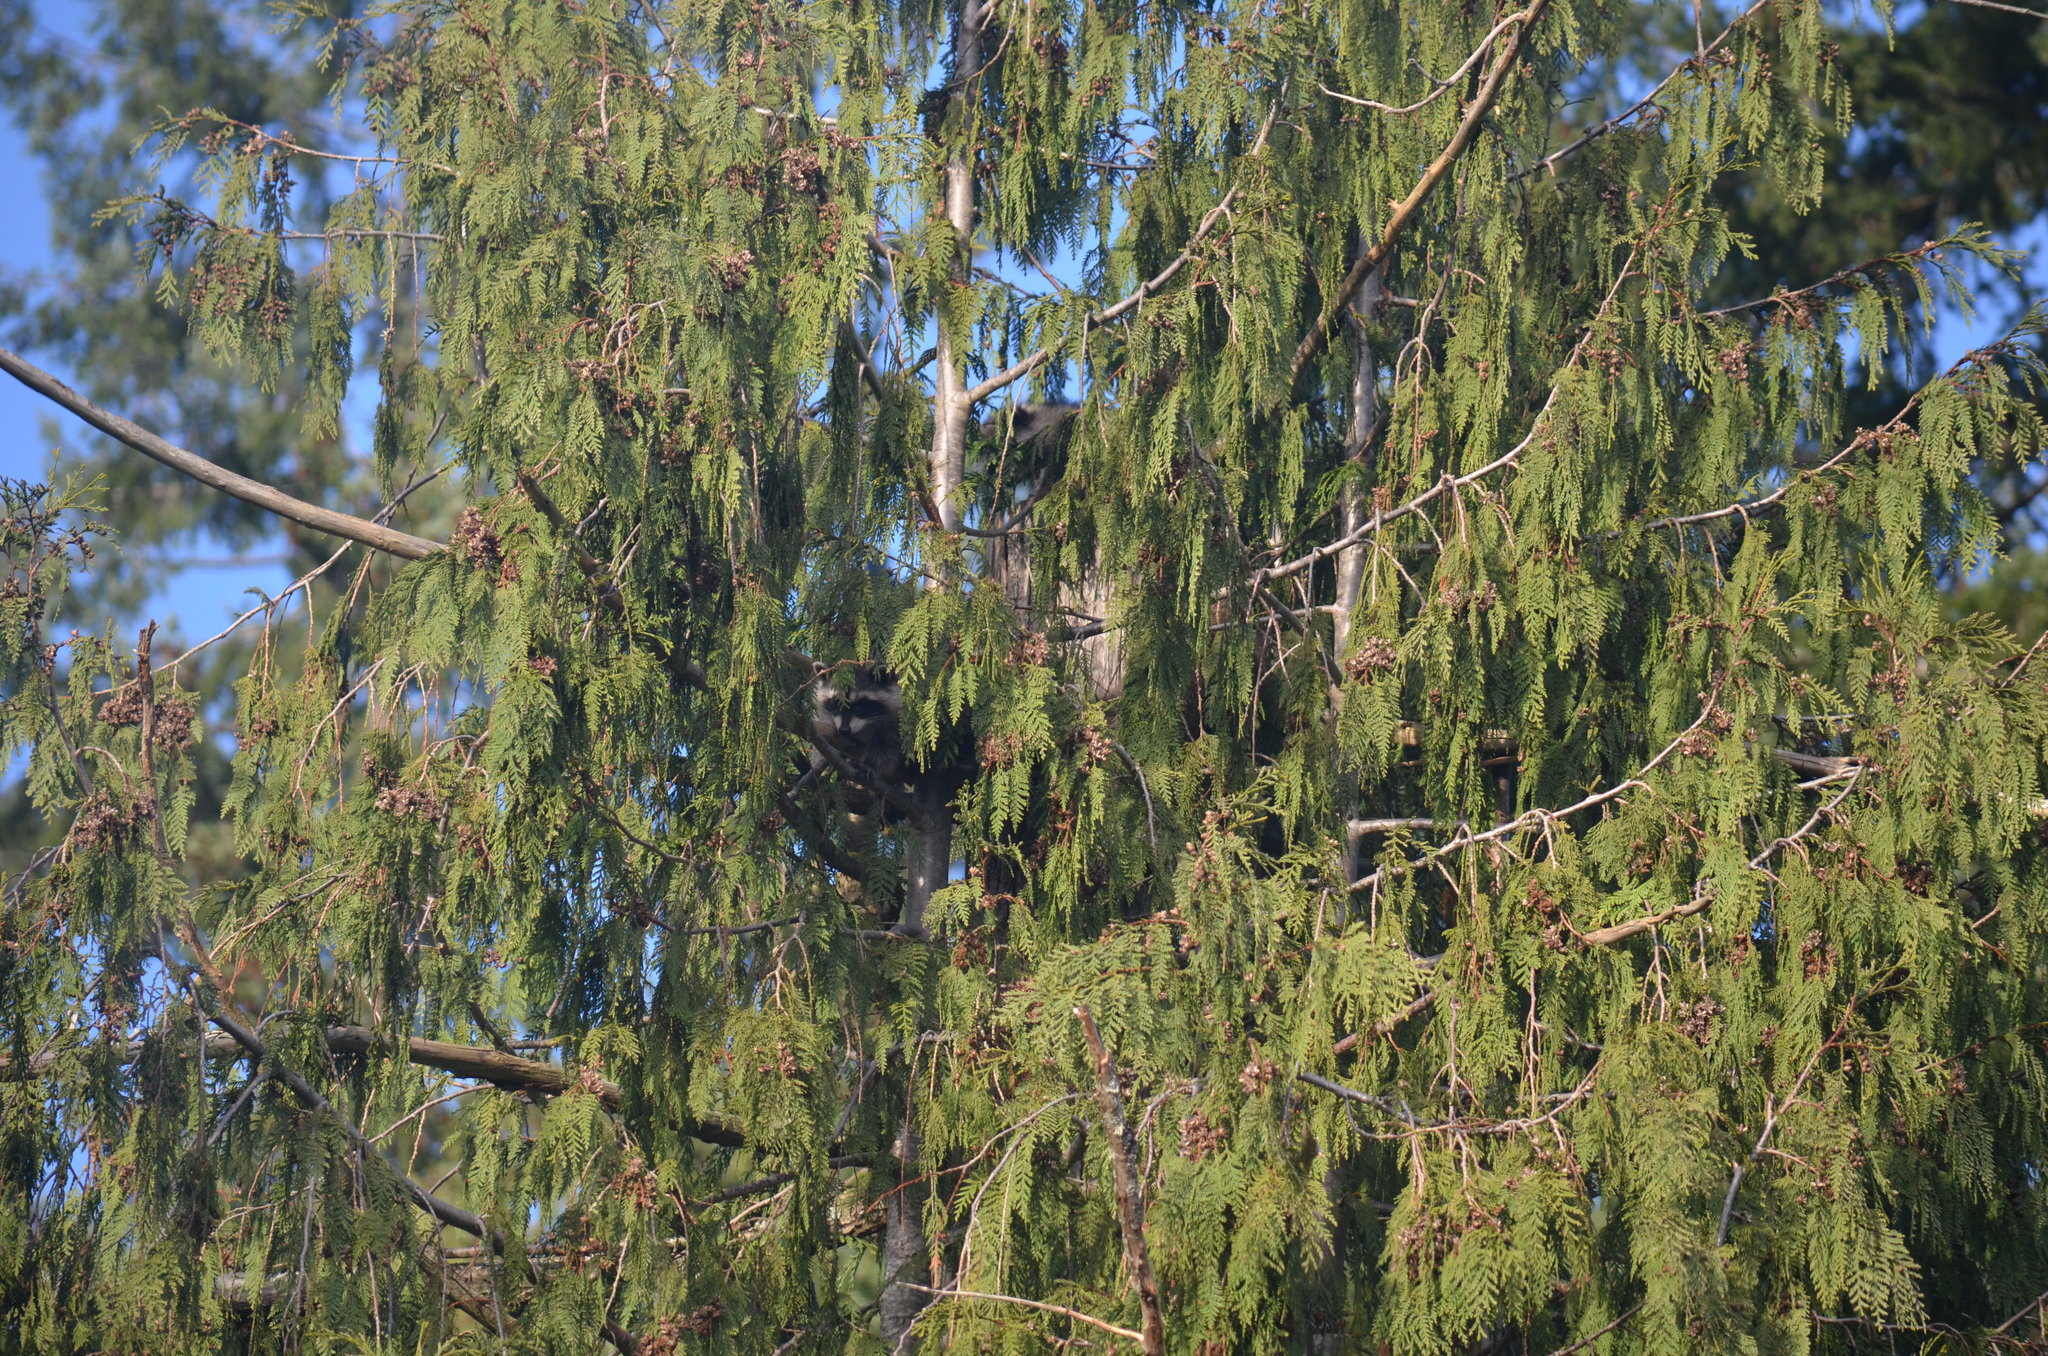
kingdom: Animalia
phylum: Chordata
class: Mammalia
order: Carnivora
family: Procyonidae
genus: Procyon
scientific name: Procyon lotor
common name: Raccoon
